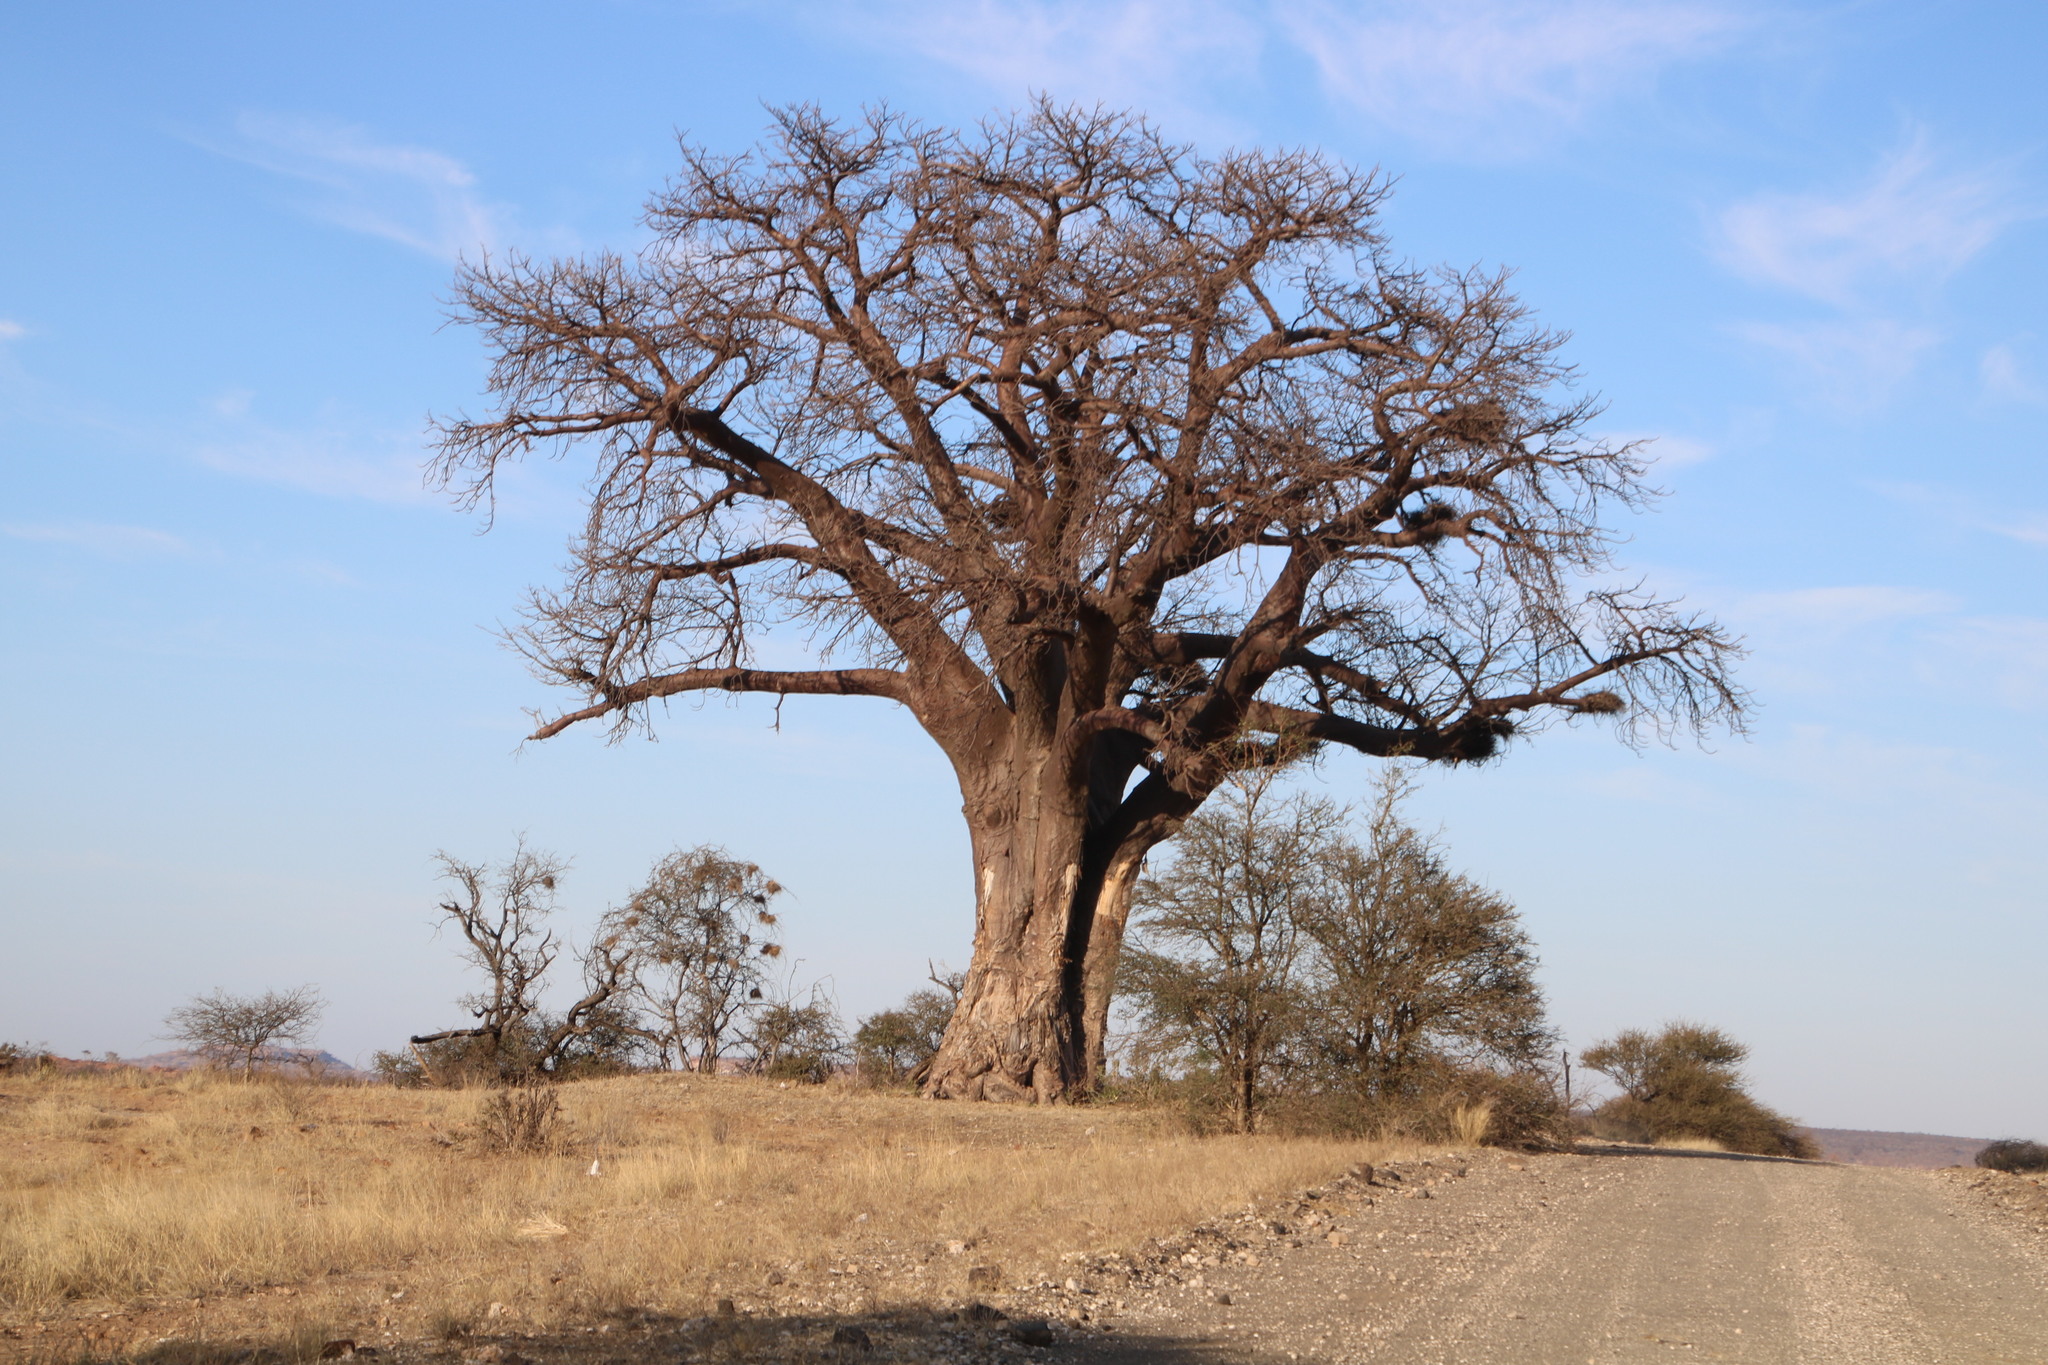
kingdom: Plantae
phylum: Tracheophyta
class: Magnoliopsida
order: Malvales
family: Malvaceae
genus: Adansonia
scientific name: Adansonia digitata
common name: Dead-rat-tree
